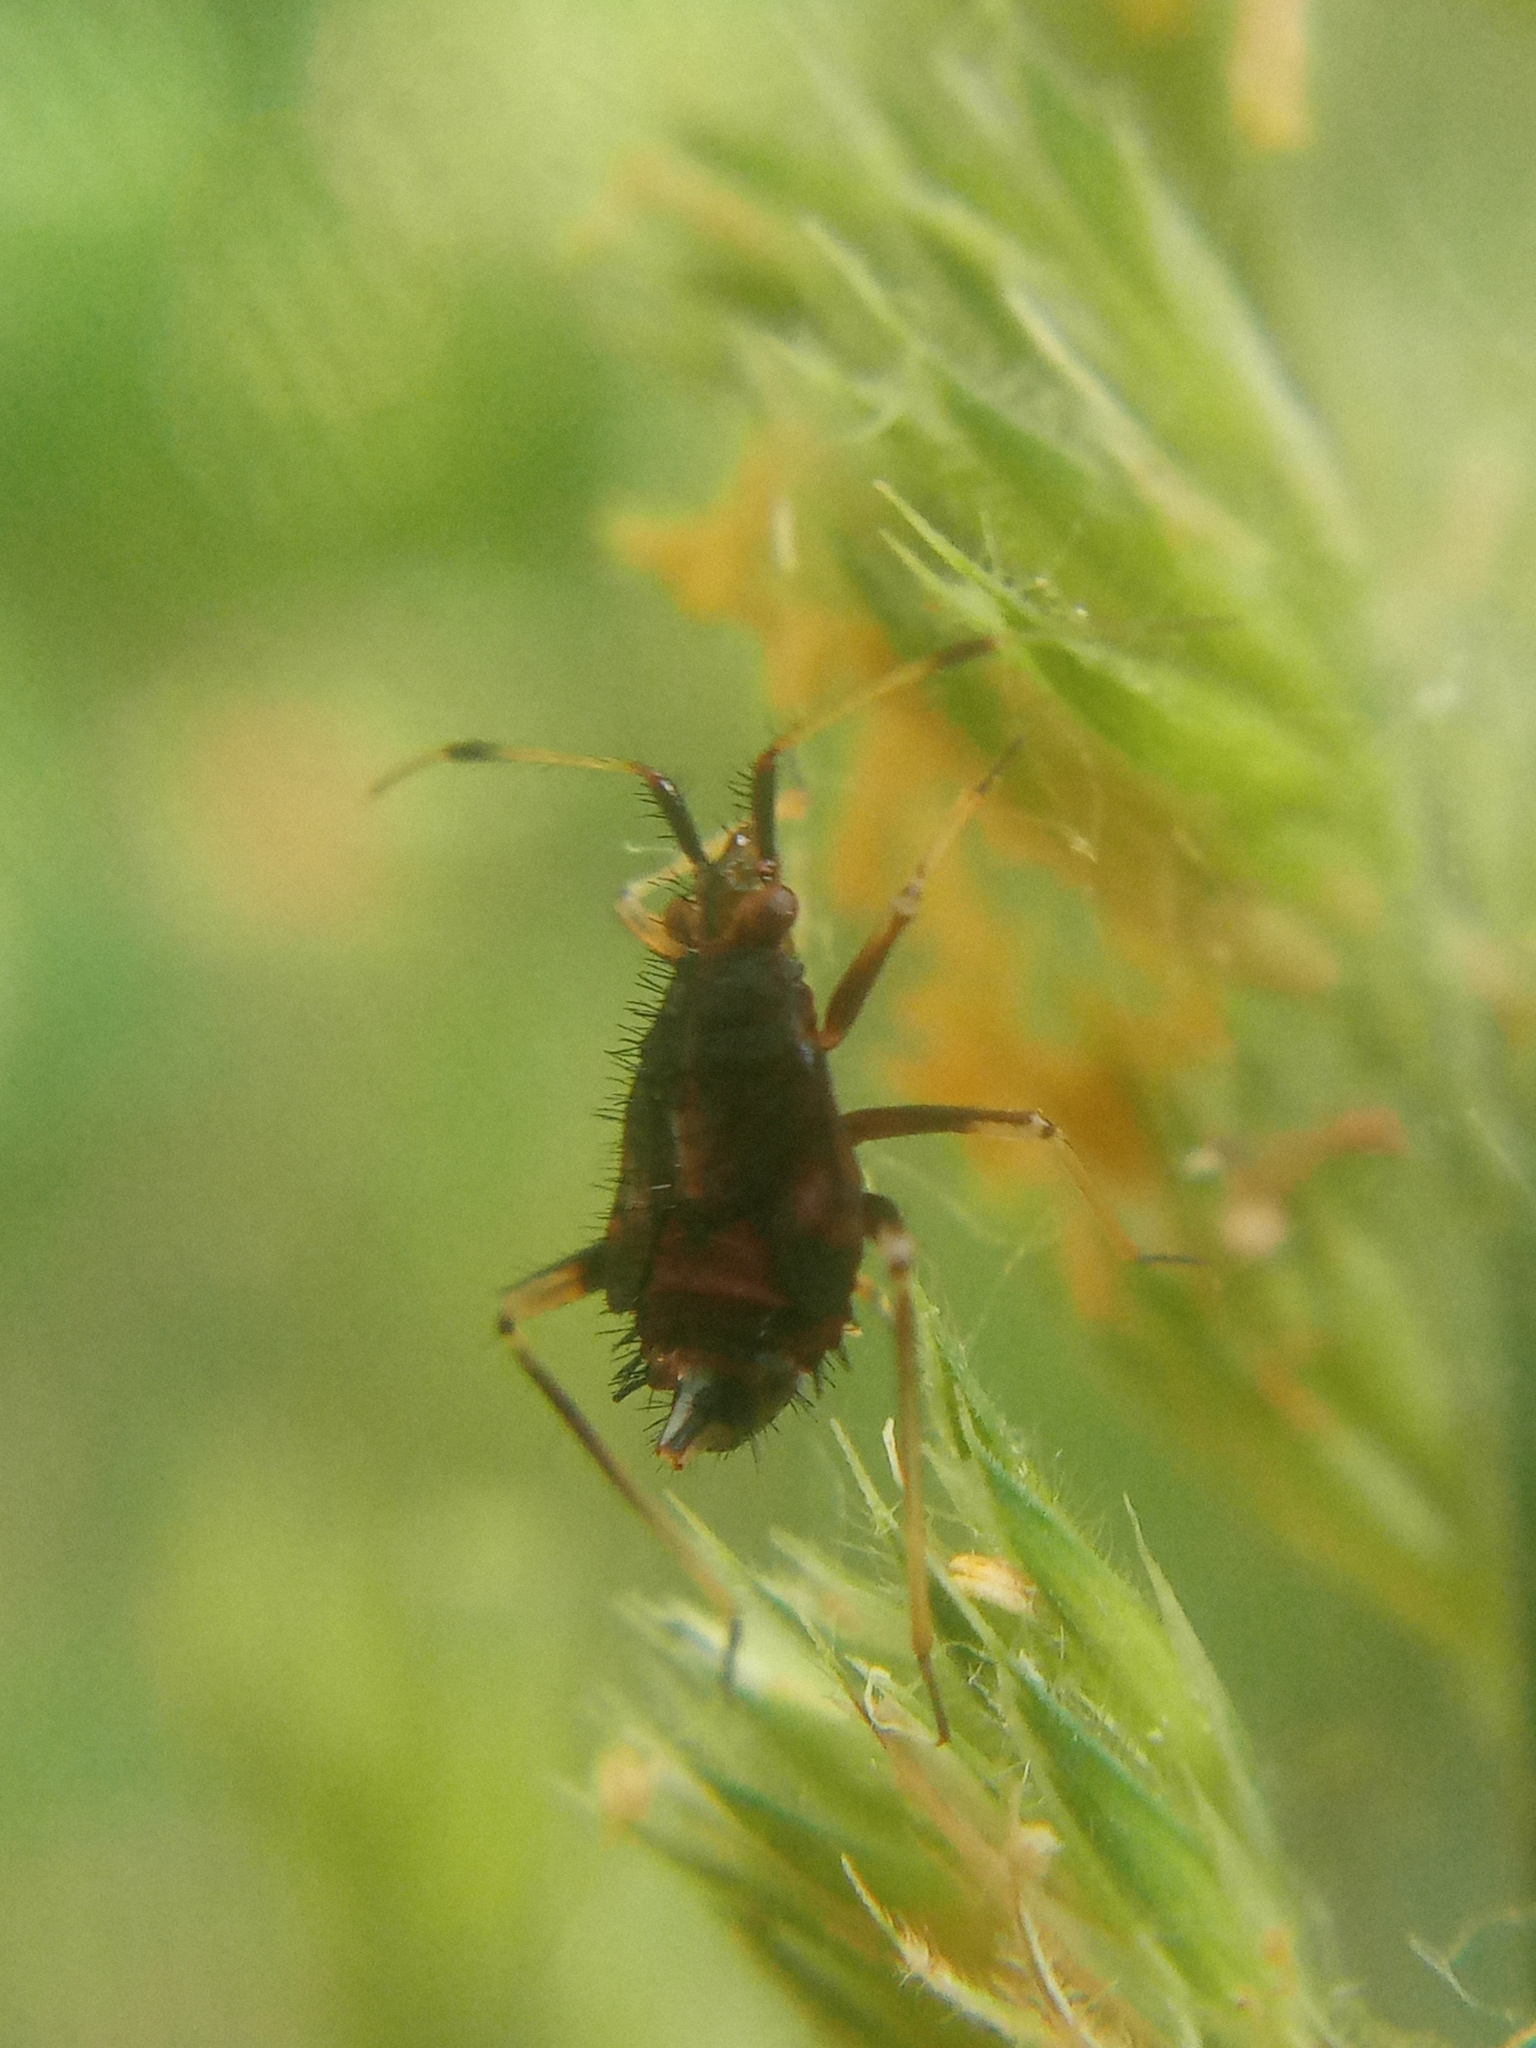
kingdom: Animalia
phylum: Arthropoda
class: Insecta
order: Hemiptera
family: Miridae
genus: Deraeocoris
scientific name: Deraeocoris ruber
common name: Plant bug
